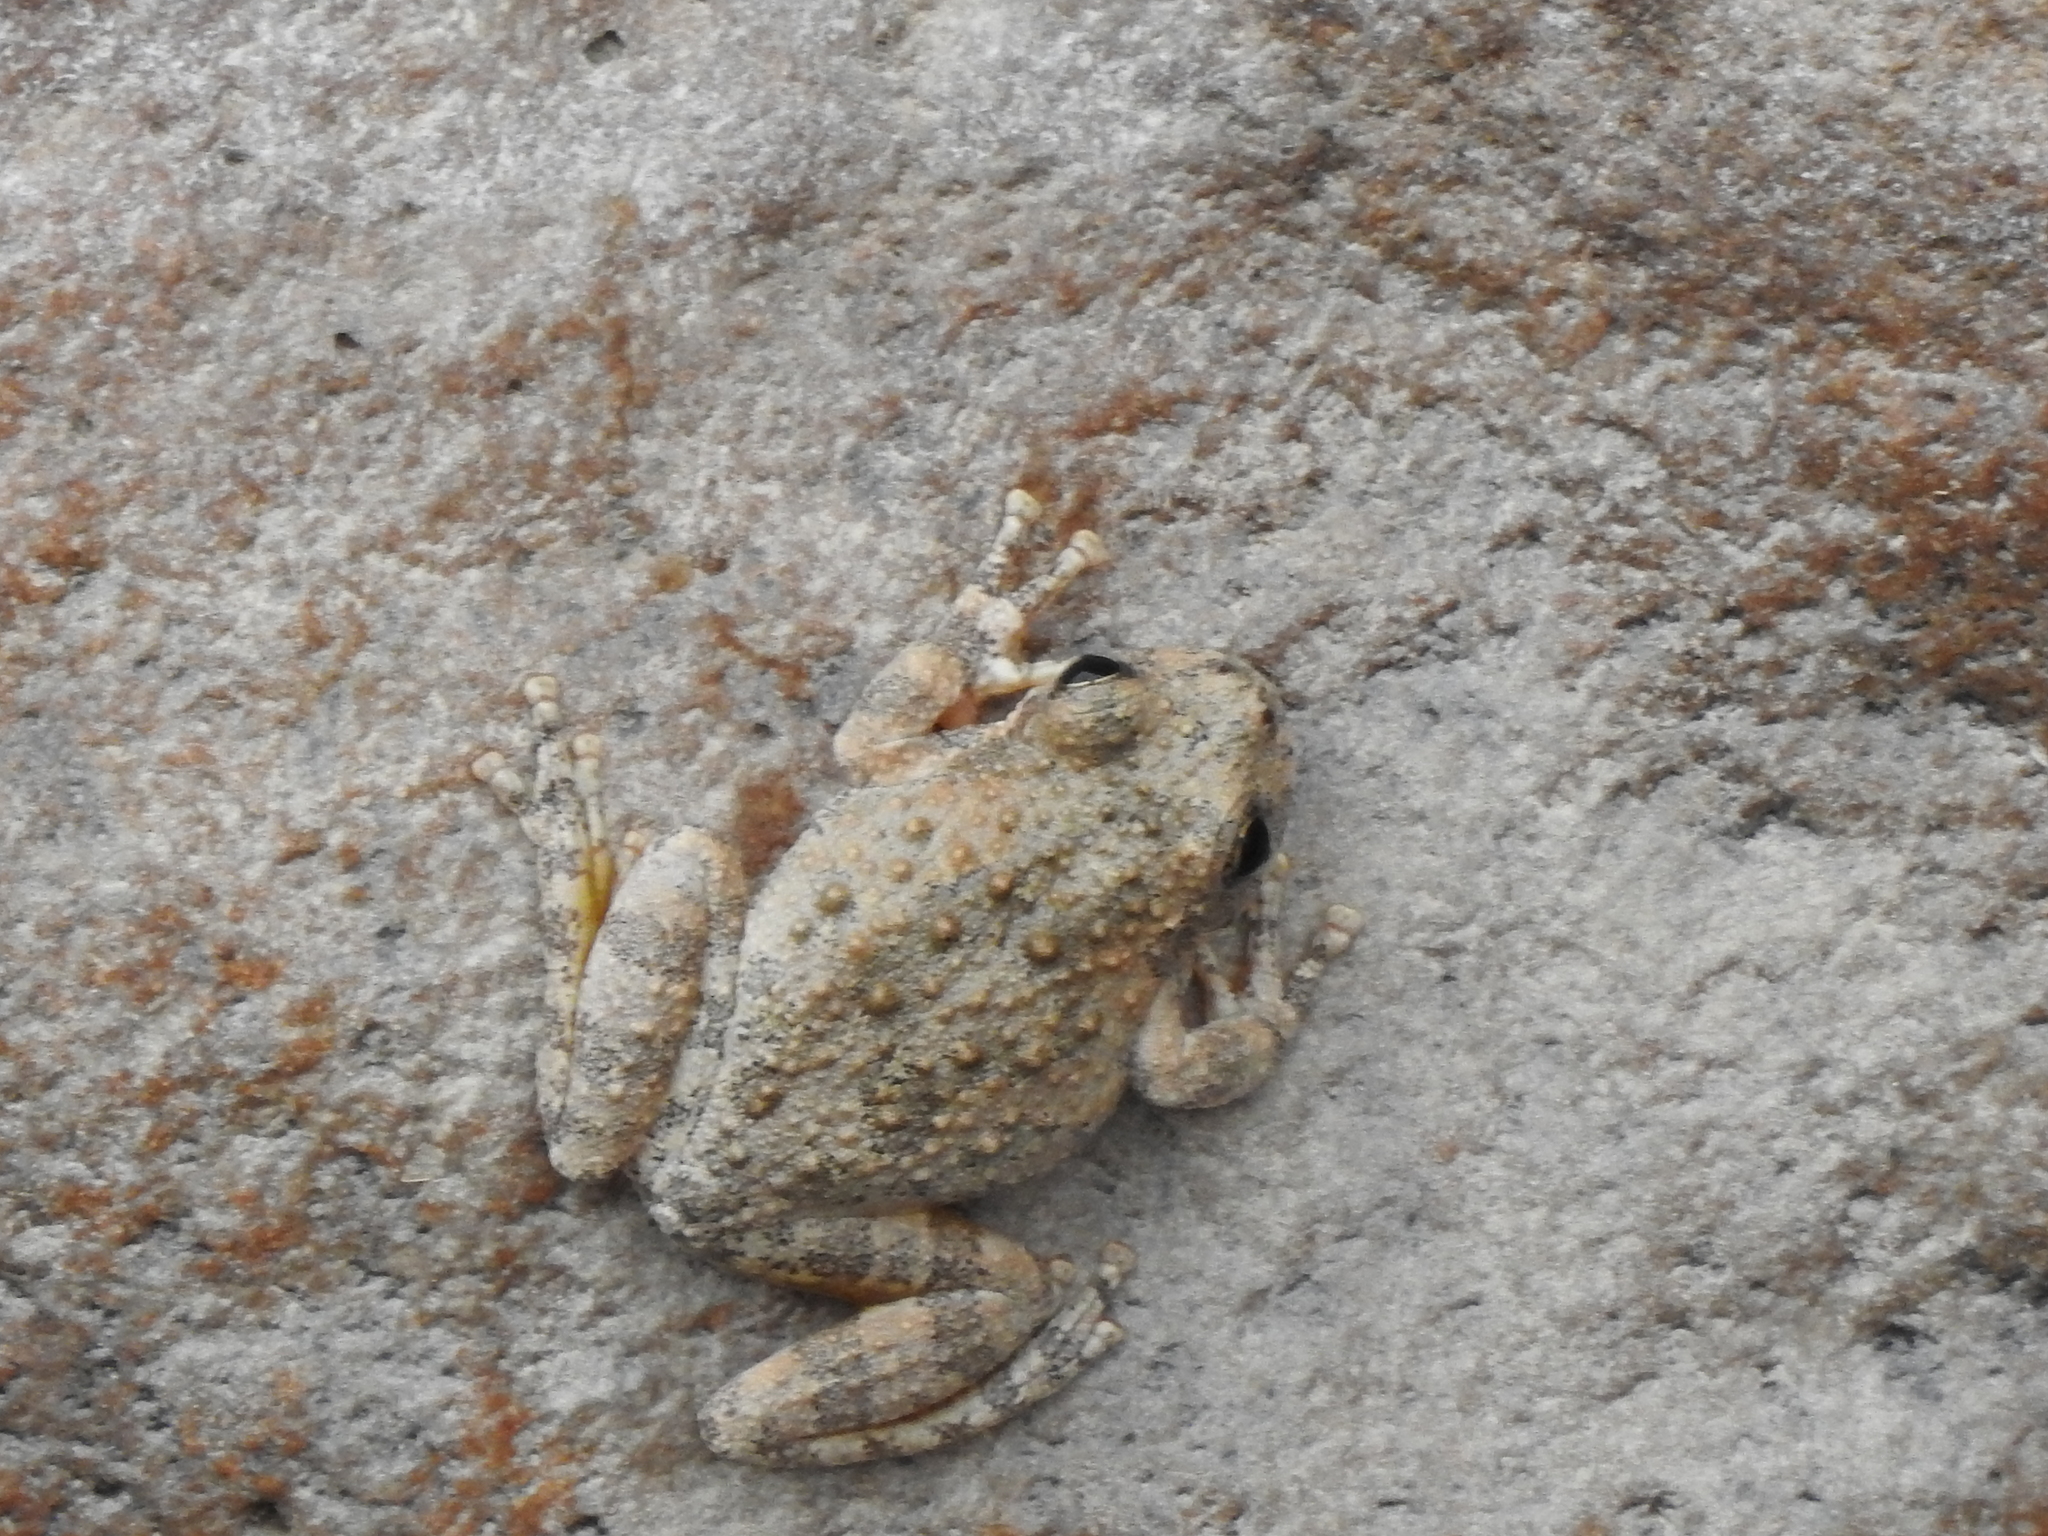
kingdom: Animalia
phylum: Chordata
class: Amphibia
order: Anura
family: Hylidae
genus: Dryophytes
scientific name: Dryophytes arenicolor
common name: Canyon treefrog
